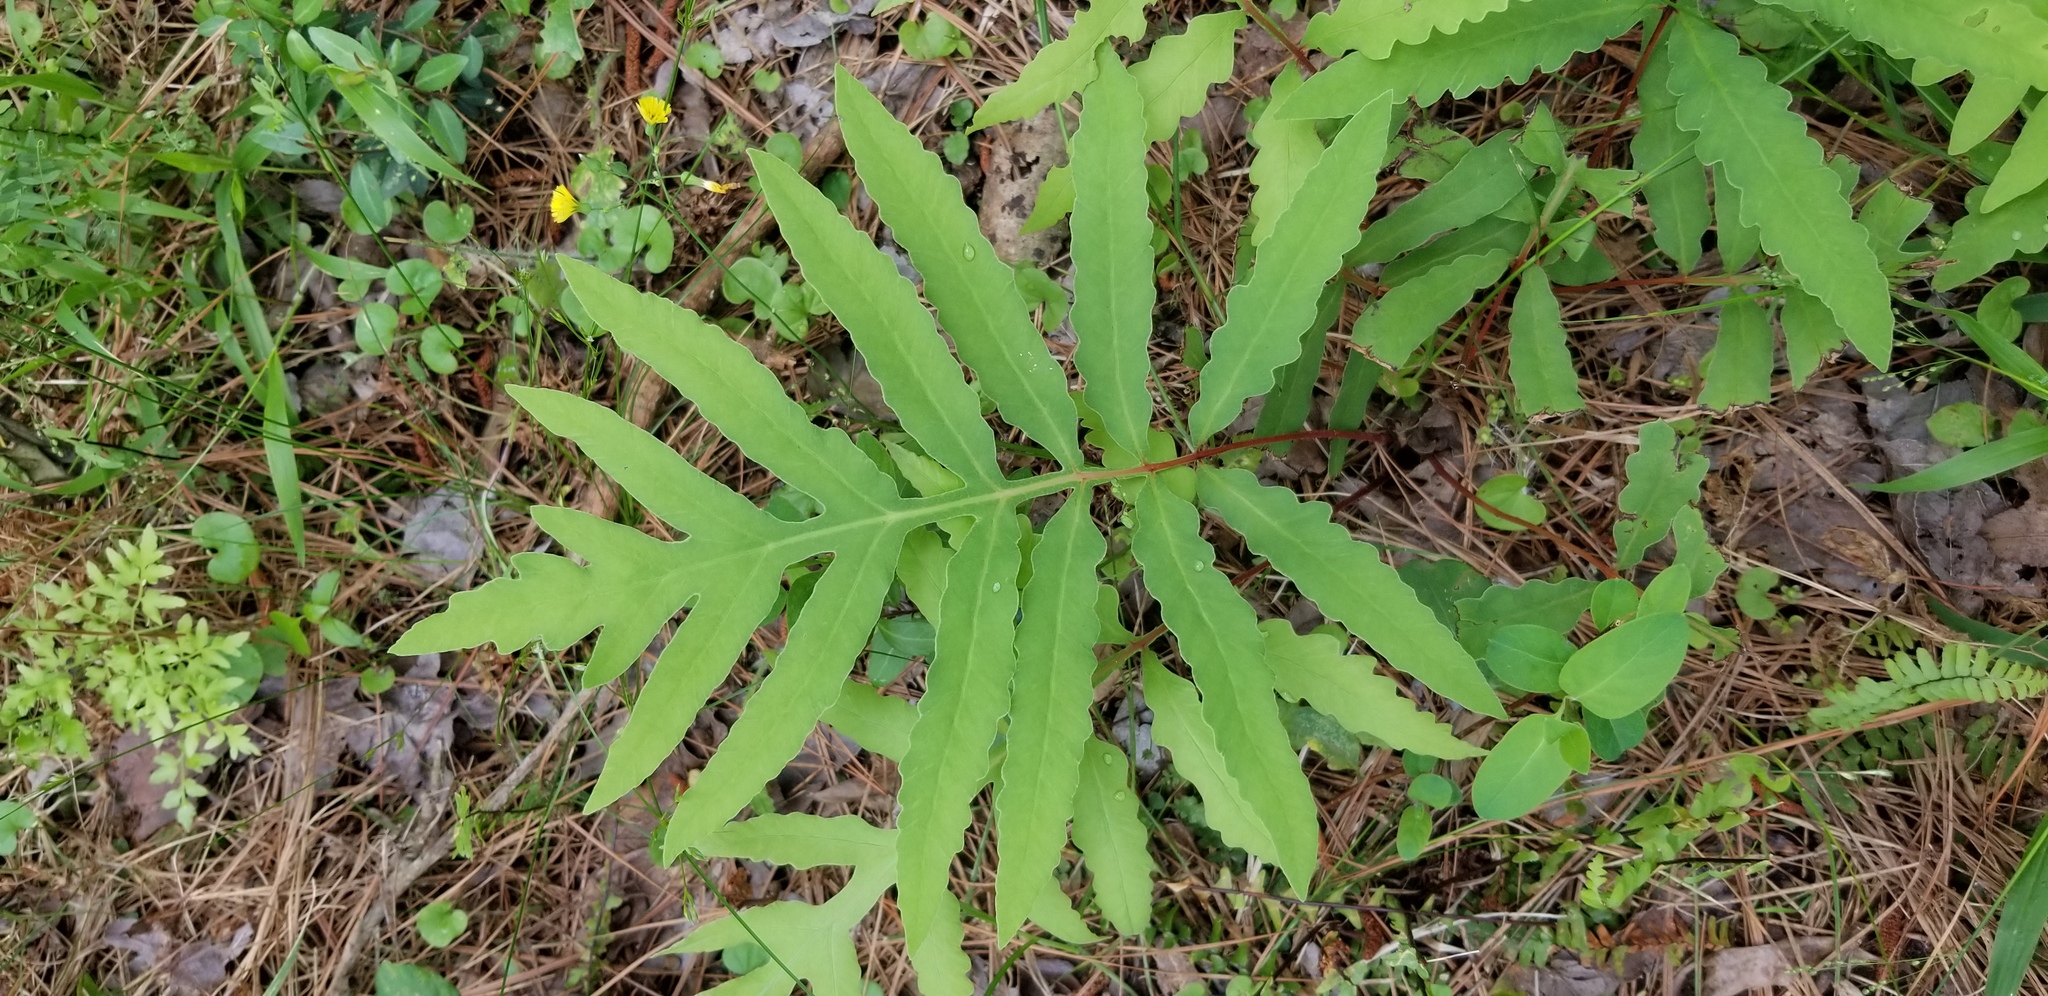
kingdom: Plantae
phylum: Tracheophyta
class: Polypodiopsida
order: Polypodiales
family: Onocleaceae
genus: Onoclea
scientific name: Onoclea sensibilis
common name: Sensitive fern
